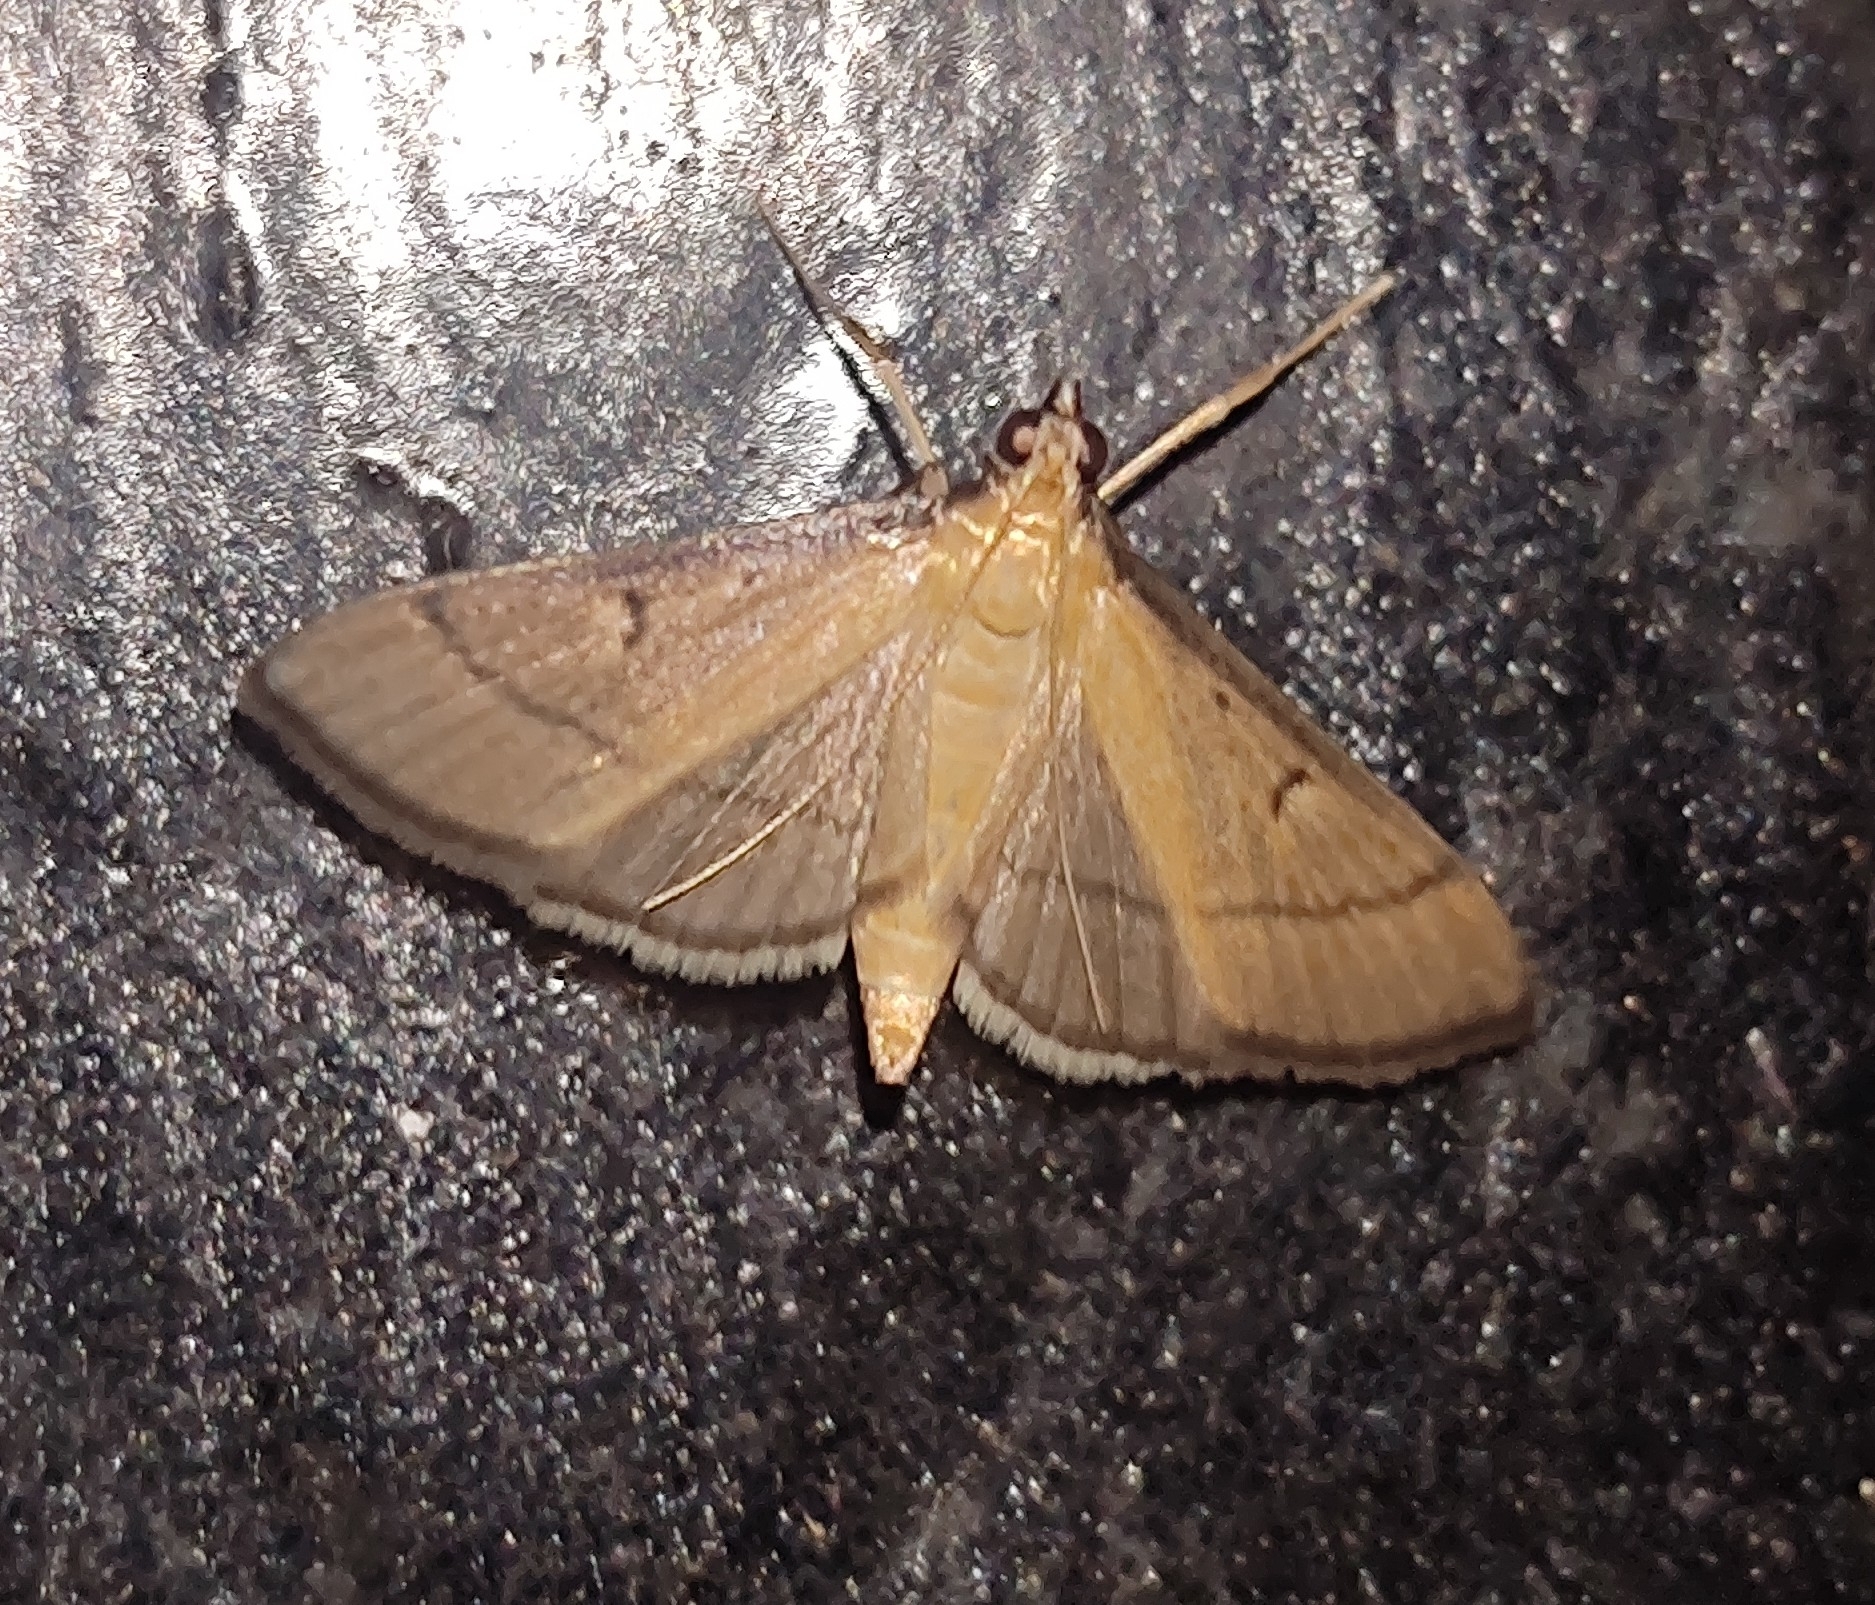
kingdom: Animalia
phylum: Arthropoda
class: Insecta
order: Lepidoptera
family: Crambidae
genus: Bradina
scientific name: Bradina admixtalis
